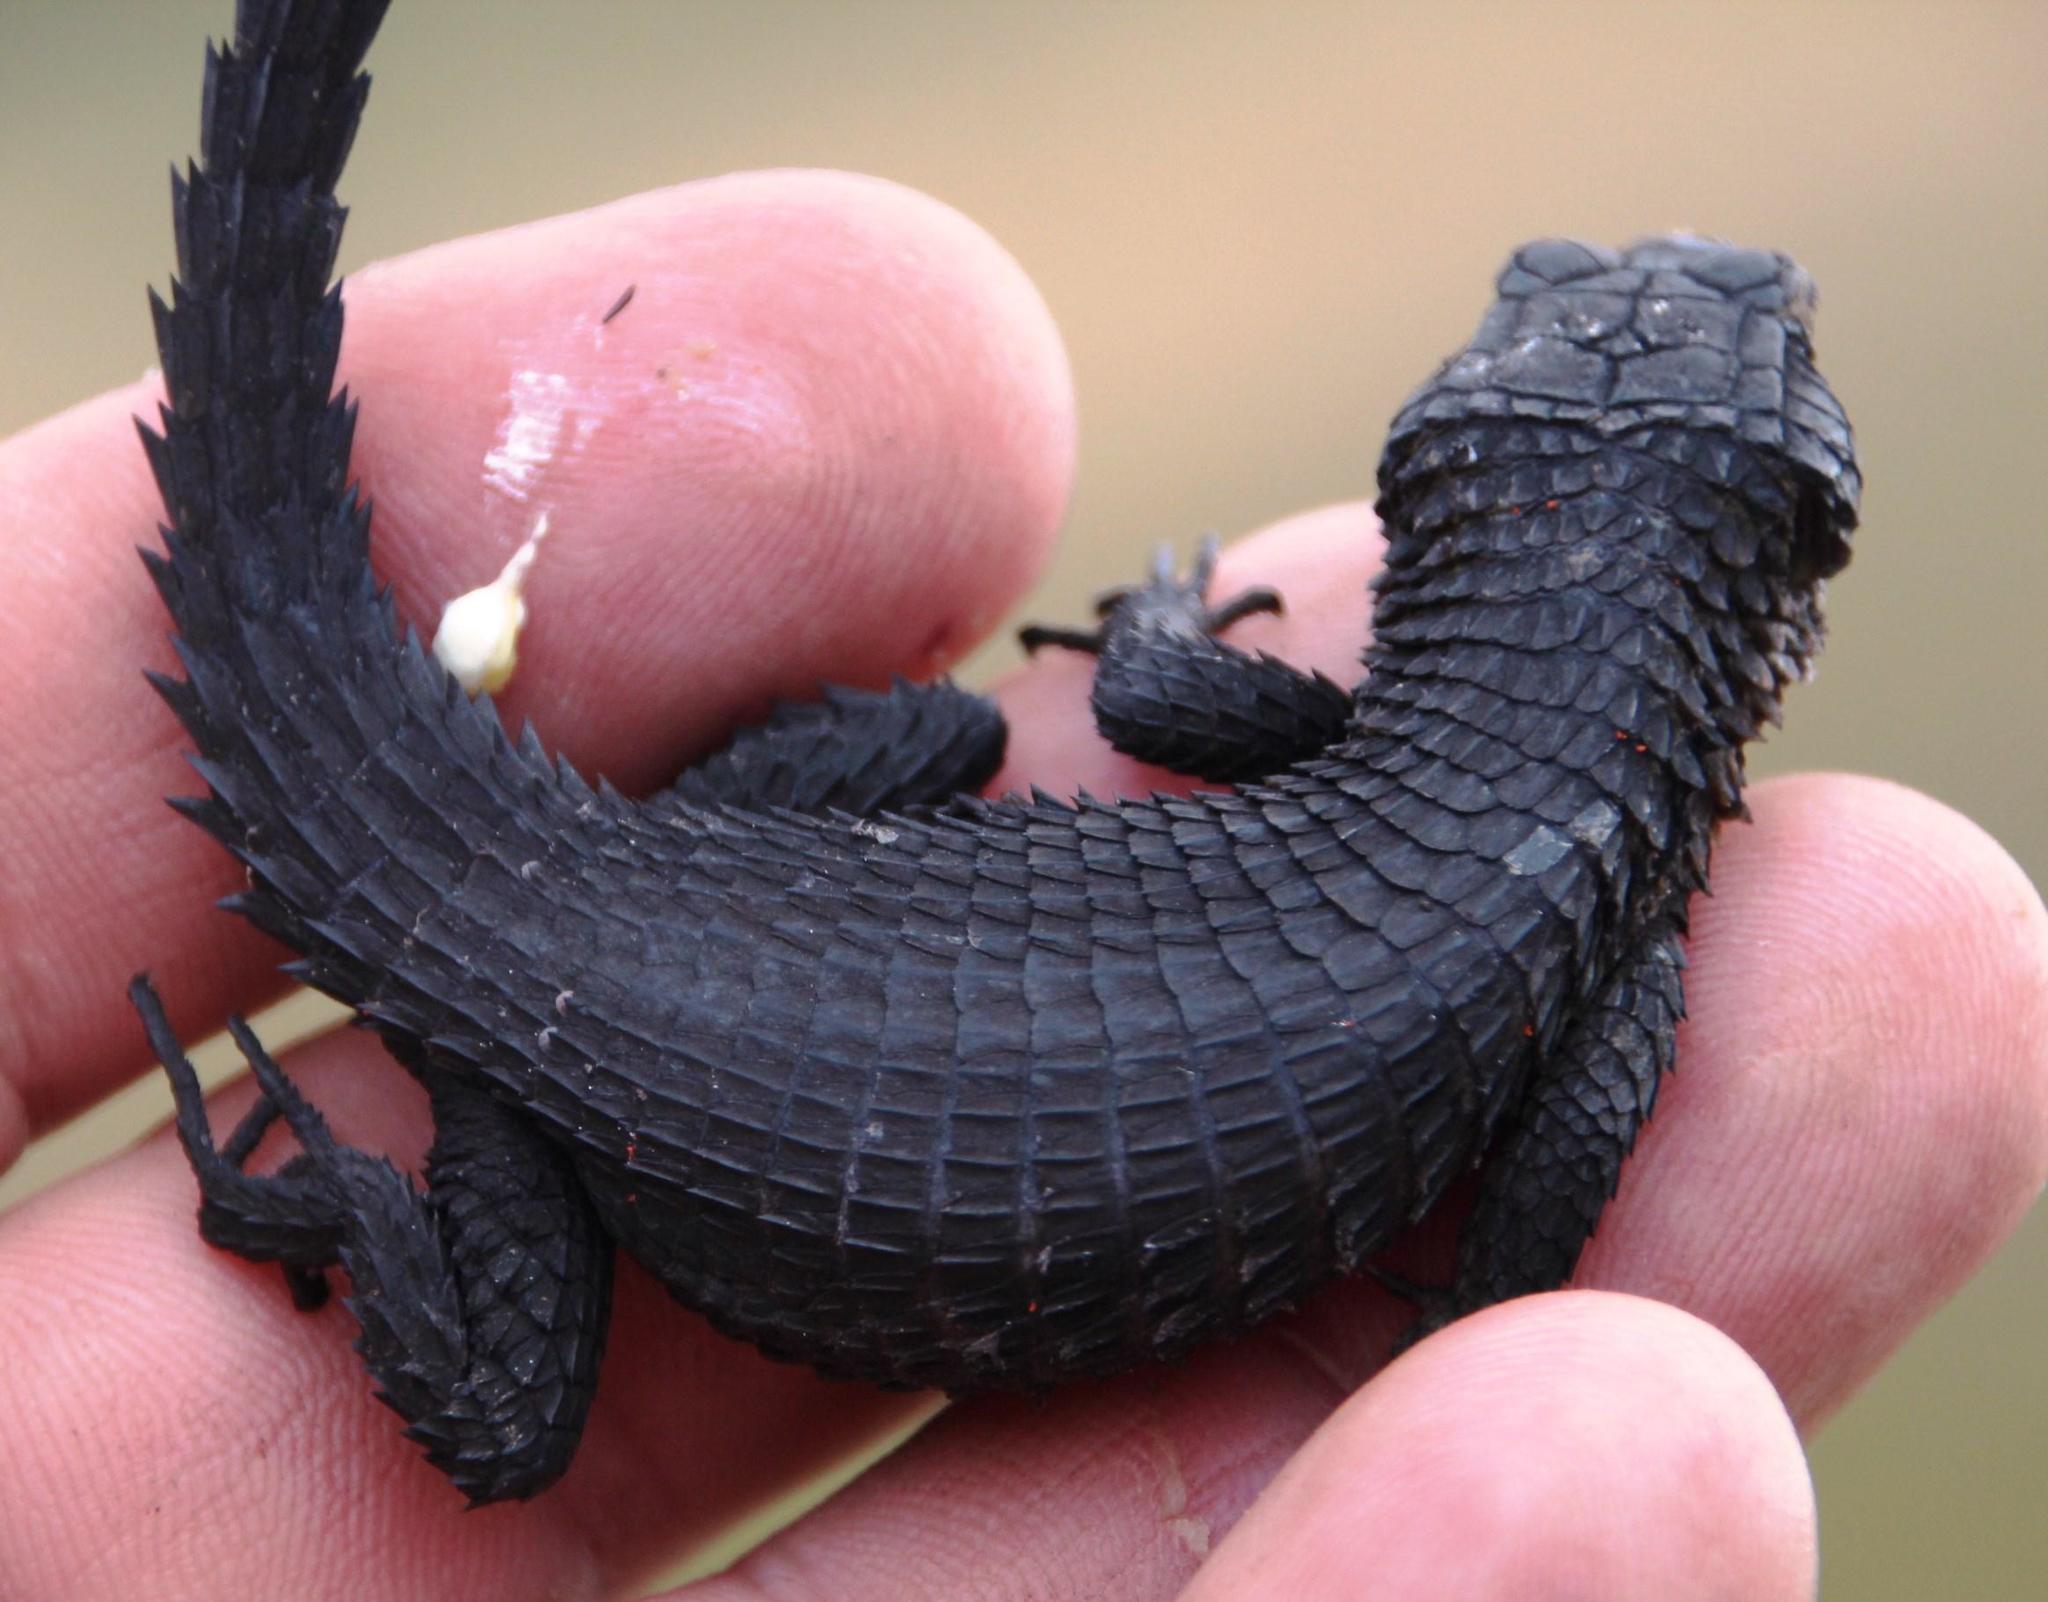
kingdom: Animalia
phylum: Chordata
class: Squamata
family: Cordylidae
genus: Cordylus
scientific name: Cordylus niger
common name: Black girdled lizard
